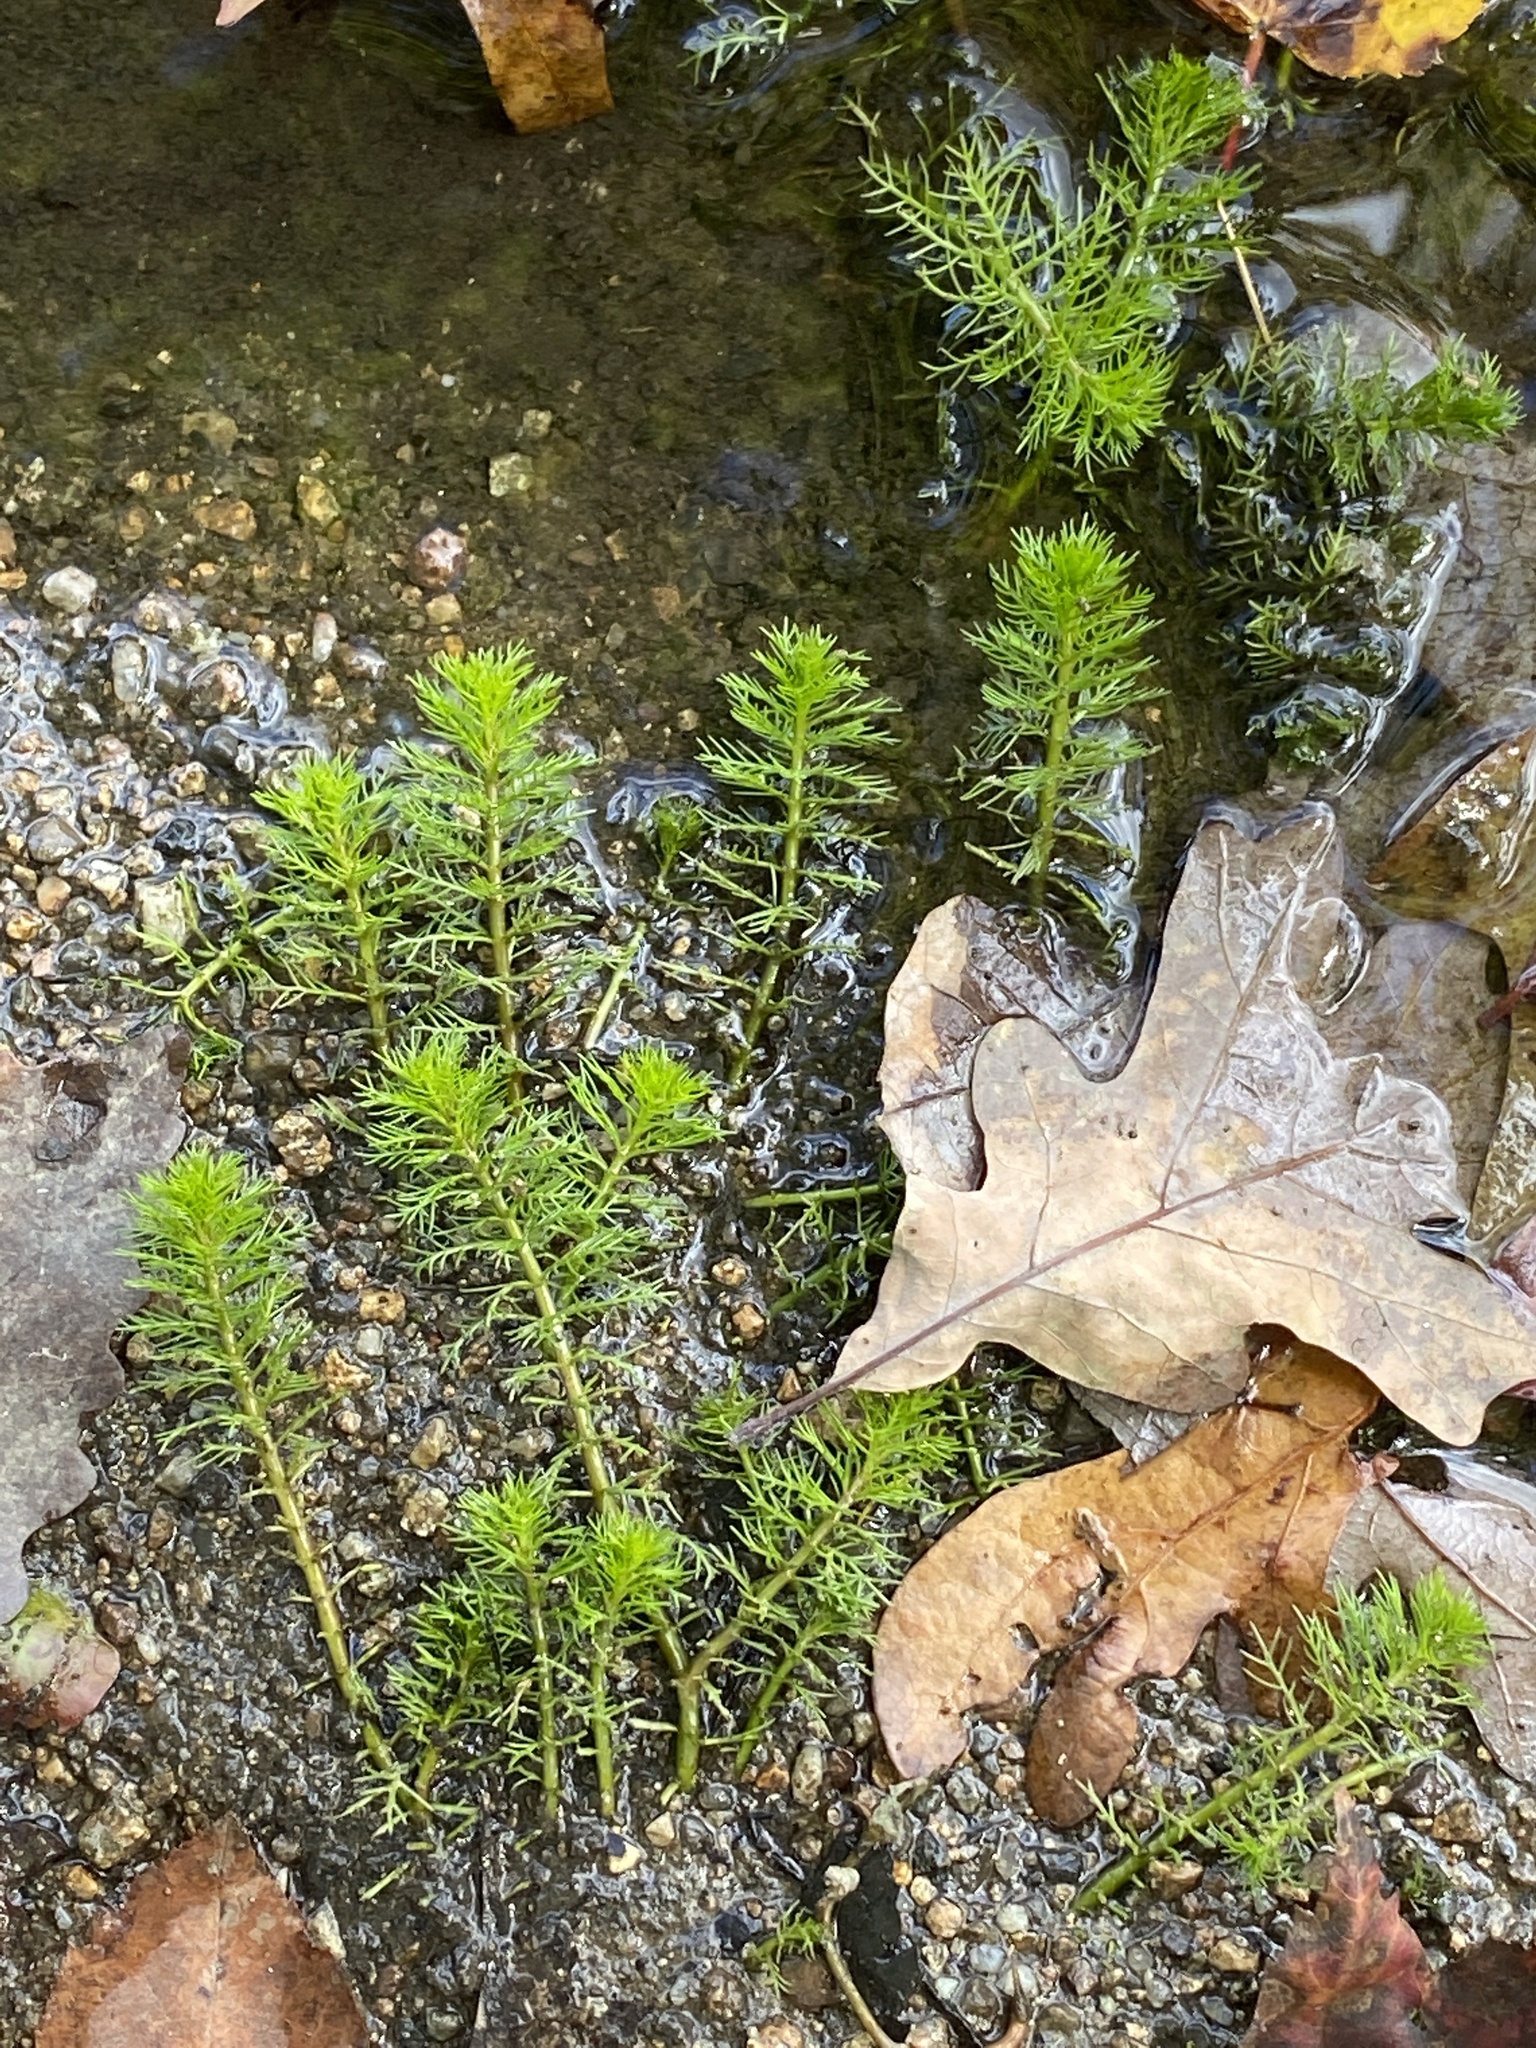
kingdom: Plantae
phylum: Tracheophyta
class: Magnoliopsida
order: Saxifragales
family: Haloragaceae
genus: Myriophyllum
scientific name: Myriophyllum pinnatum
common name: Cut-leaved water-milfoil
